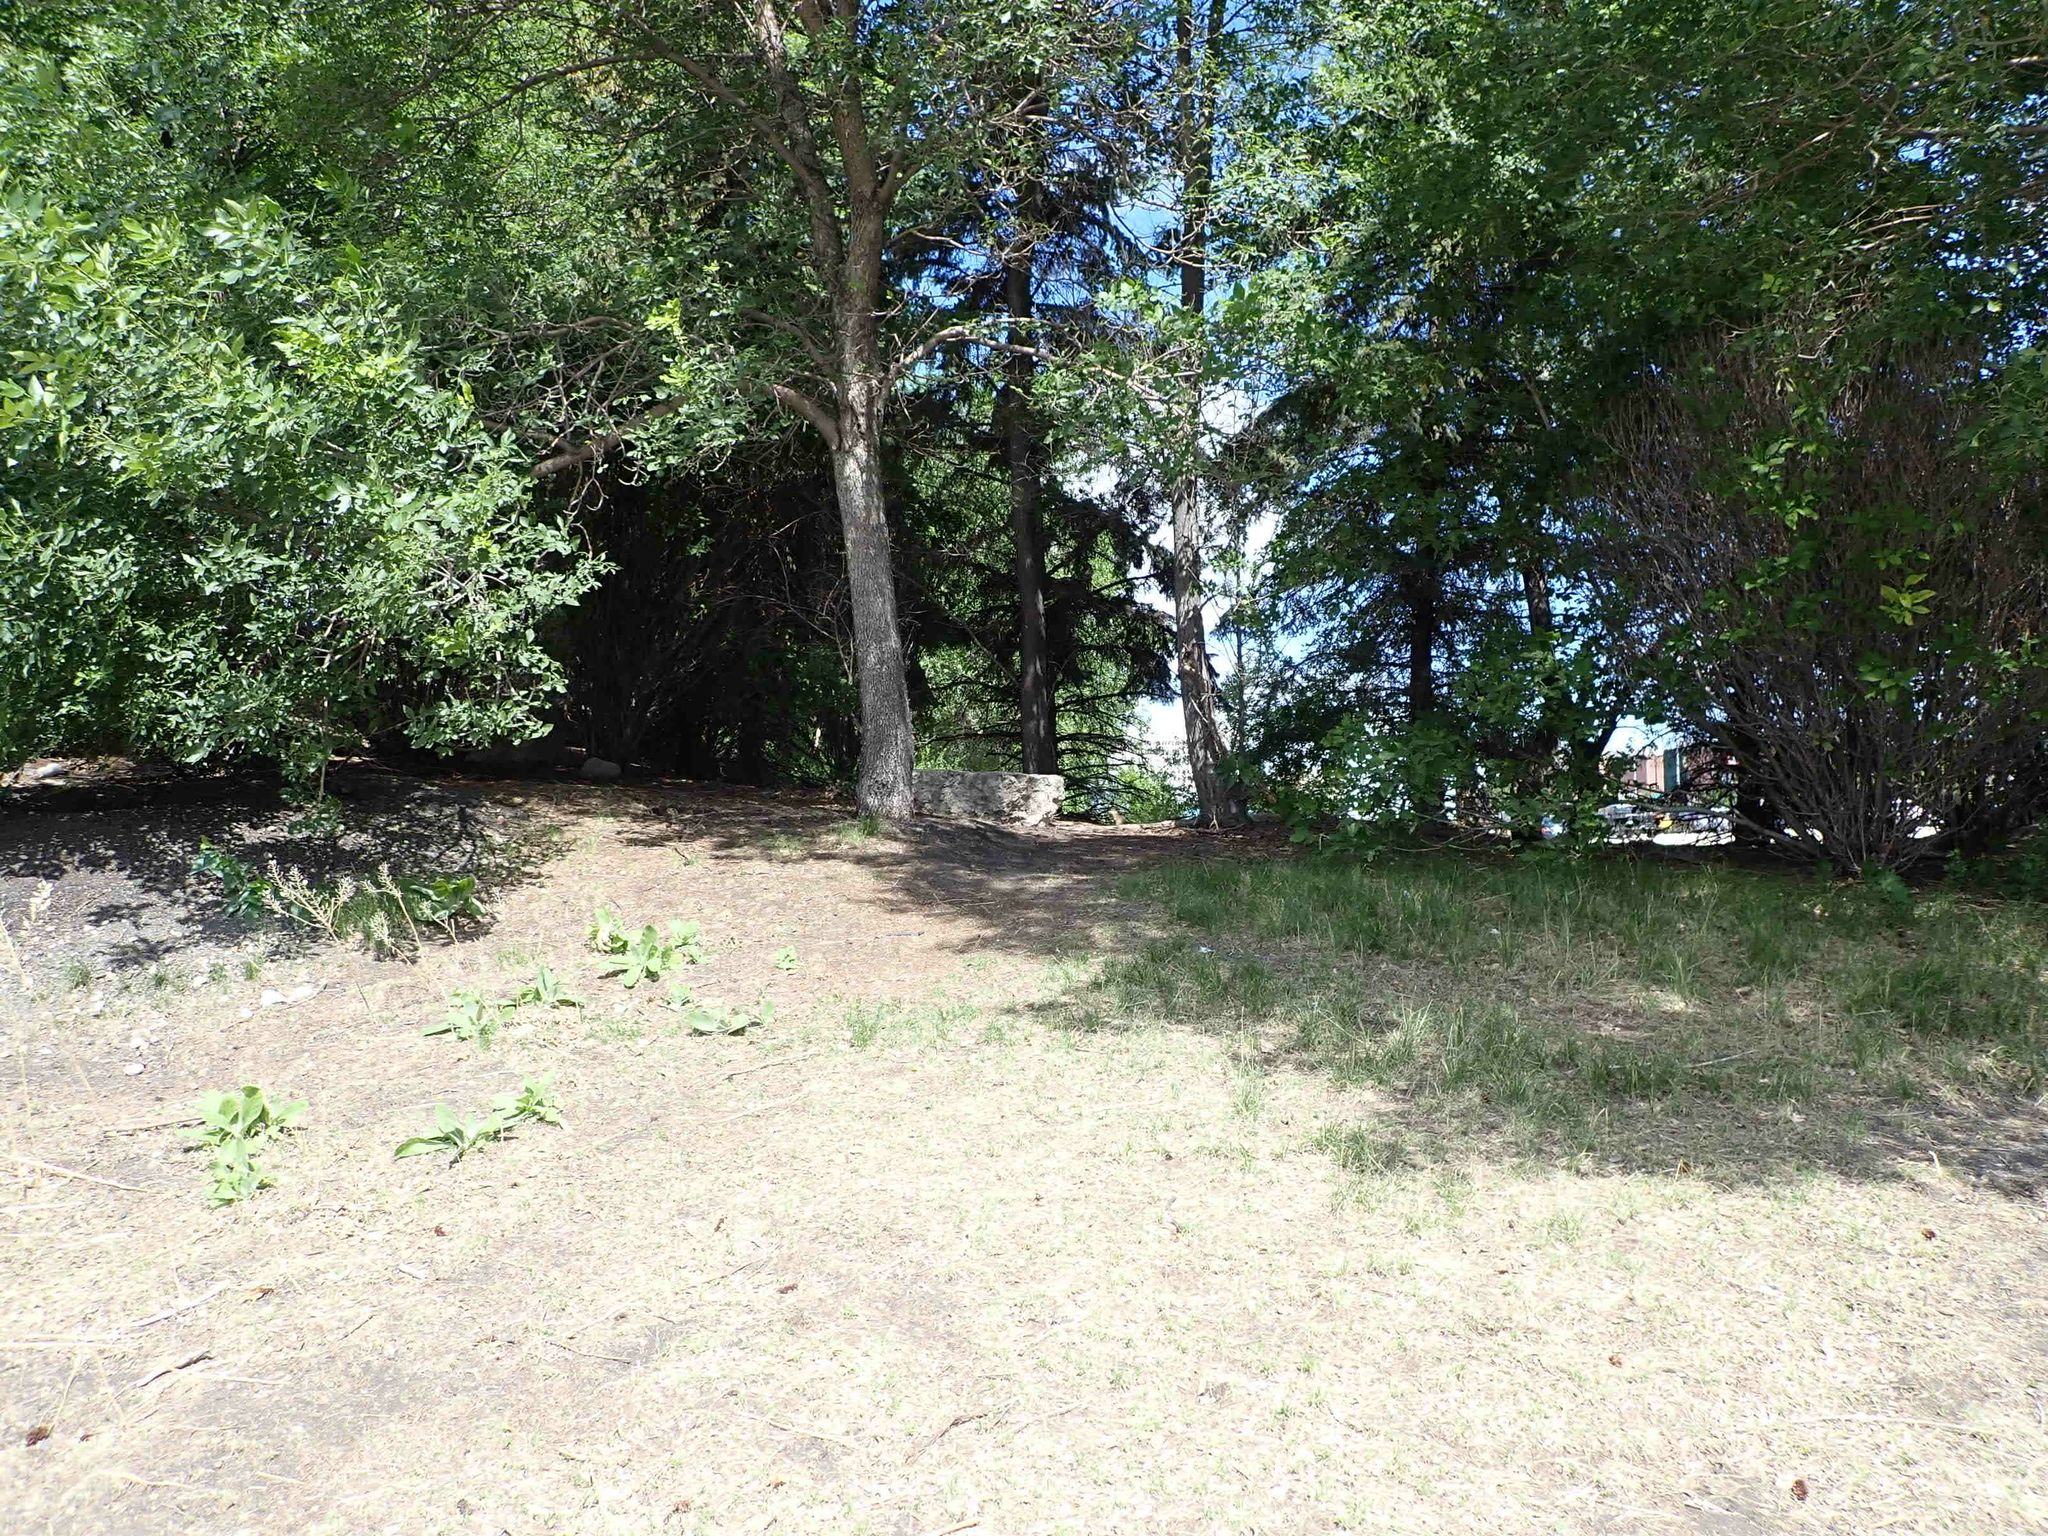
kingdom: Animalia
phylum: Chordata
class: Mammalia
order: Rodentia
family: Sciuridae
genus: Urocitellus
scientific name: Urocitellus richardsonii
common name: Richardson's ground squirrel
